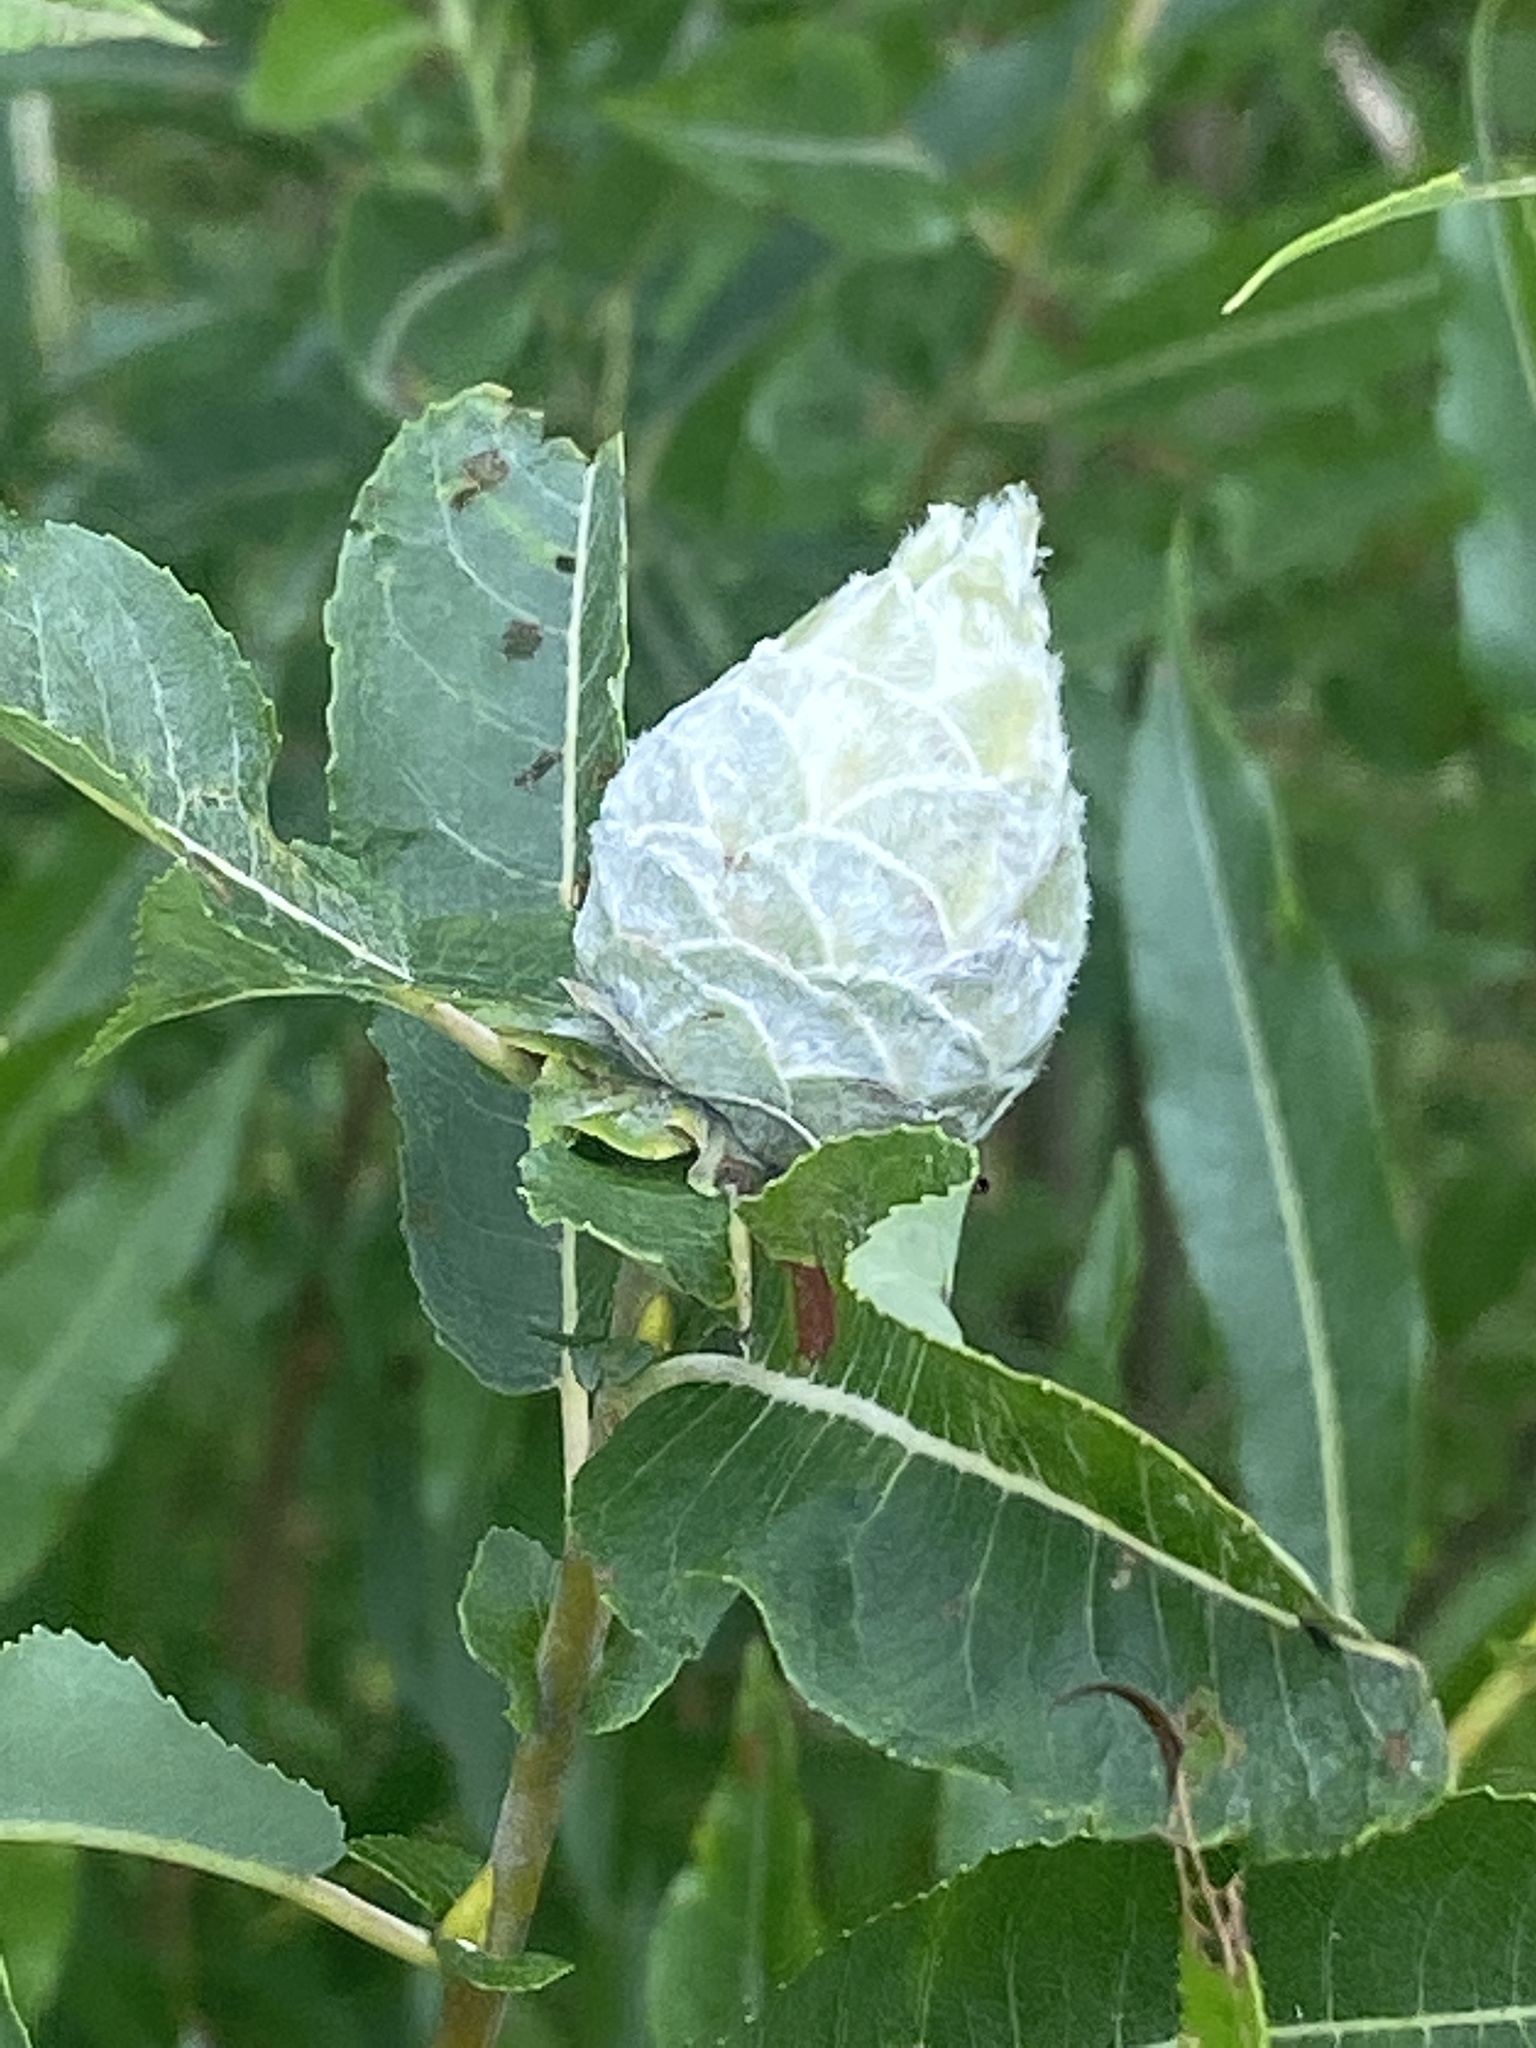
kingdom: Animalia
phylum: Arthropoda
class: Insecta
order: Diptera
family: Cecidomyiidae
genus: Rabdophaga
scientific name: Rabdophaga strobiloides
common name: Willow pinecone gall midge
